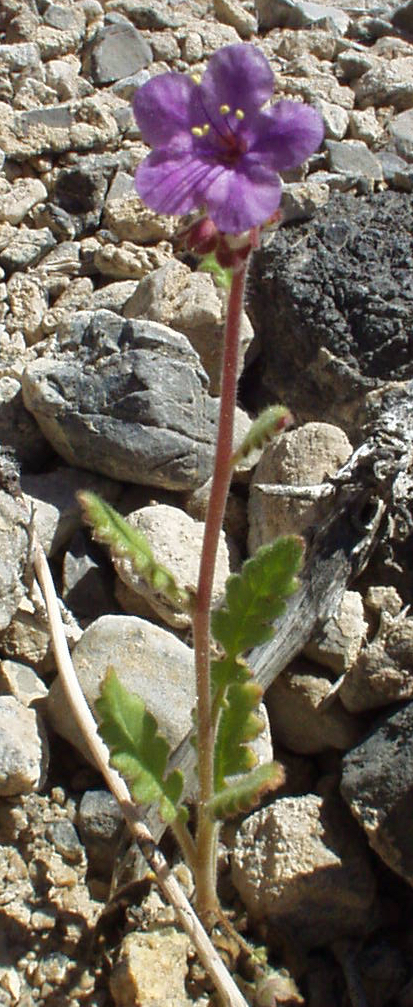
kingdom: Plantae
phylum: Tracheophyta
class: Magnoliopsida
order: Boraginales
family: Hydrophyllaceae
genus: Phacelia
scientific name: Phacelia crenulata
